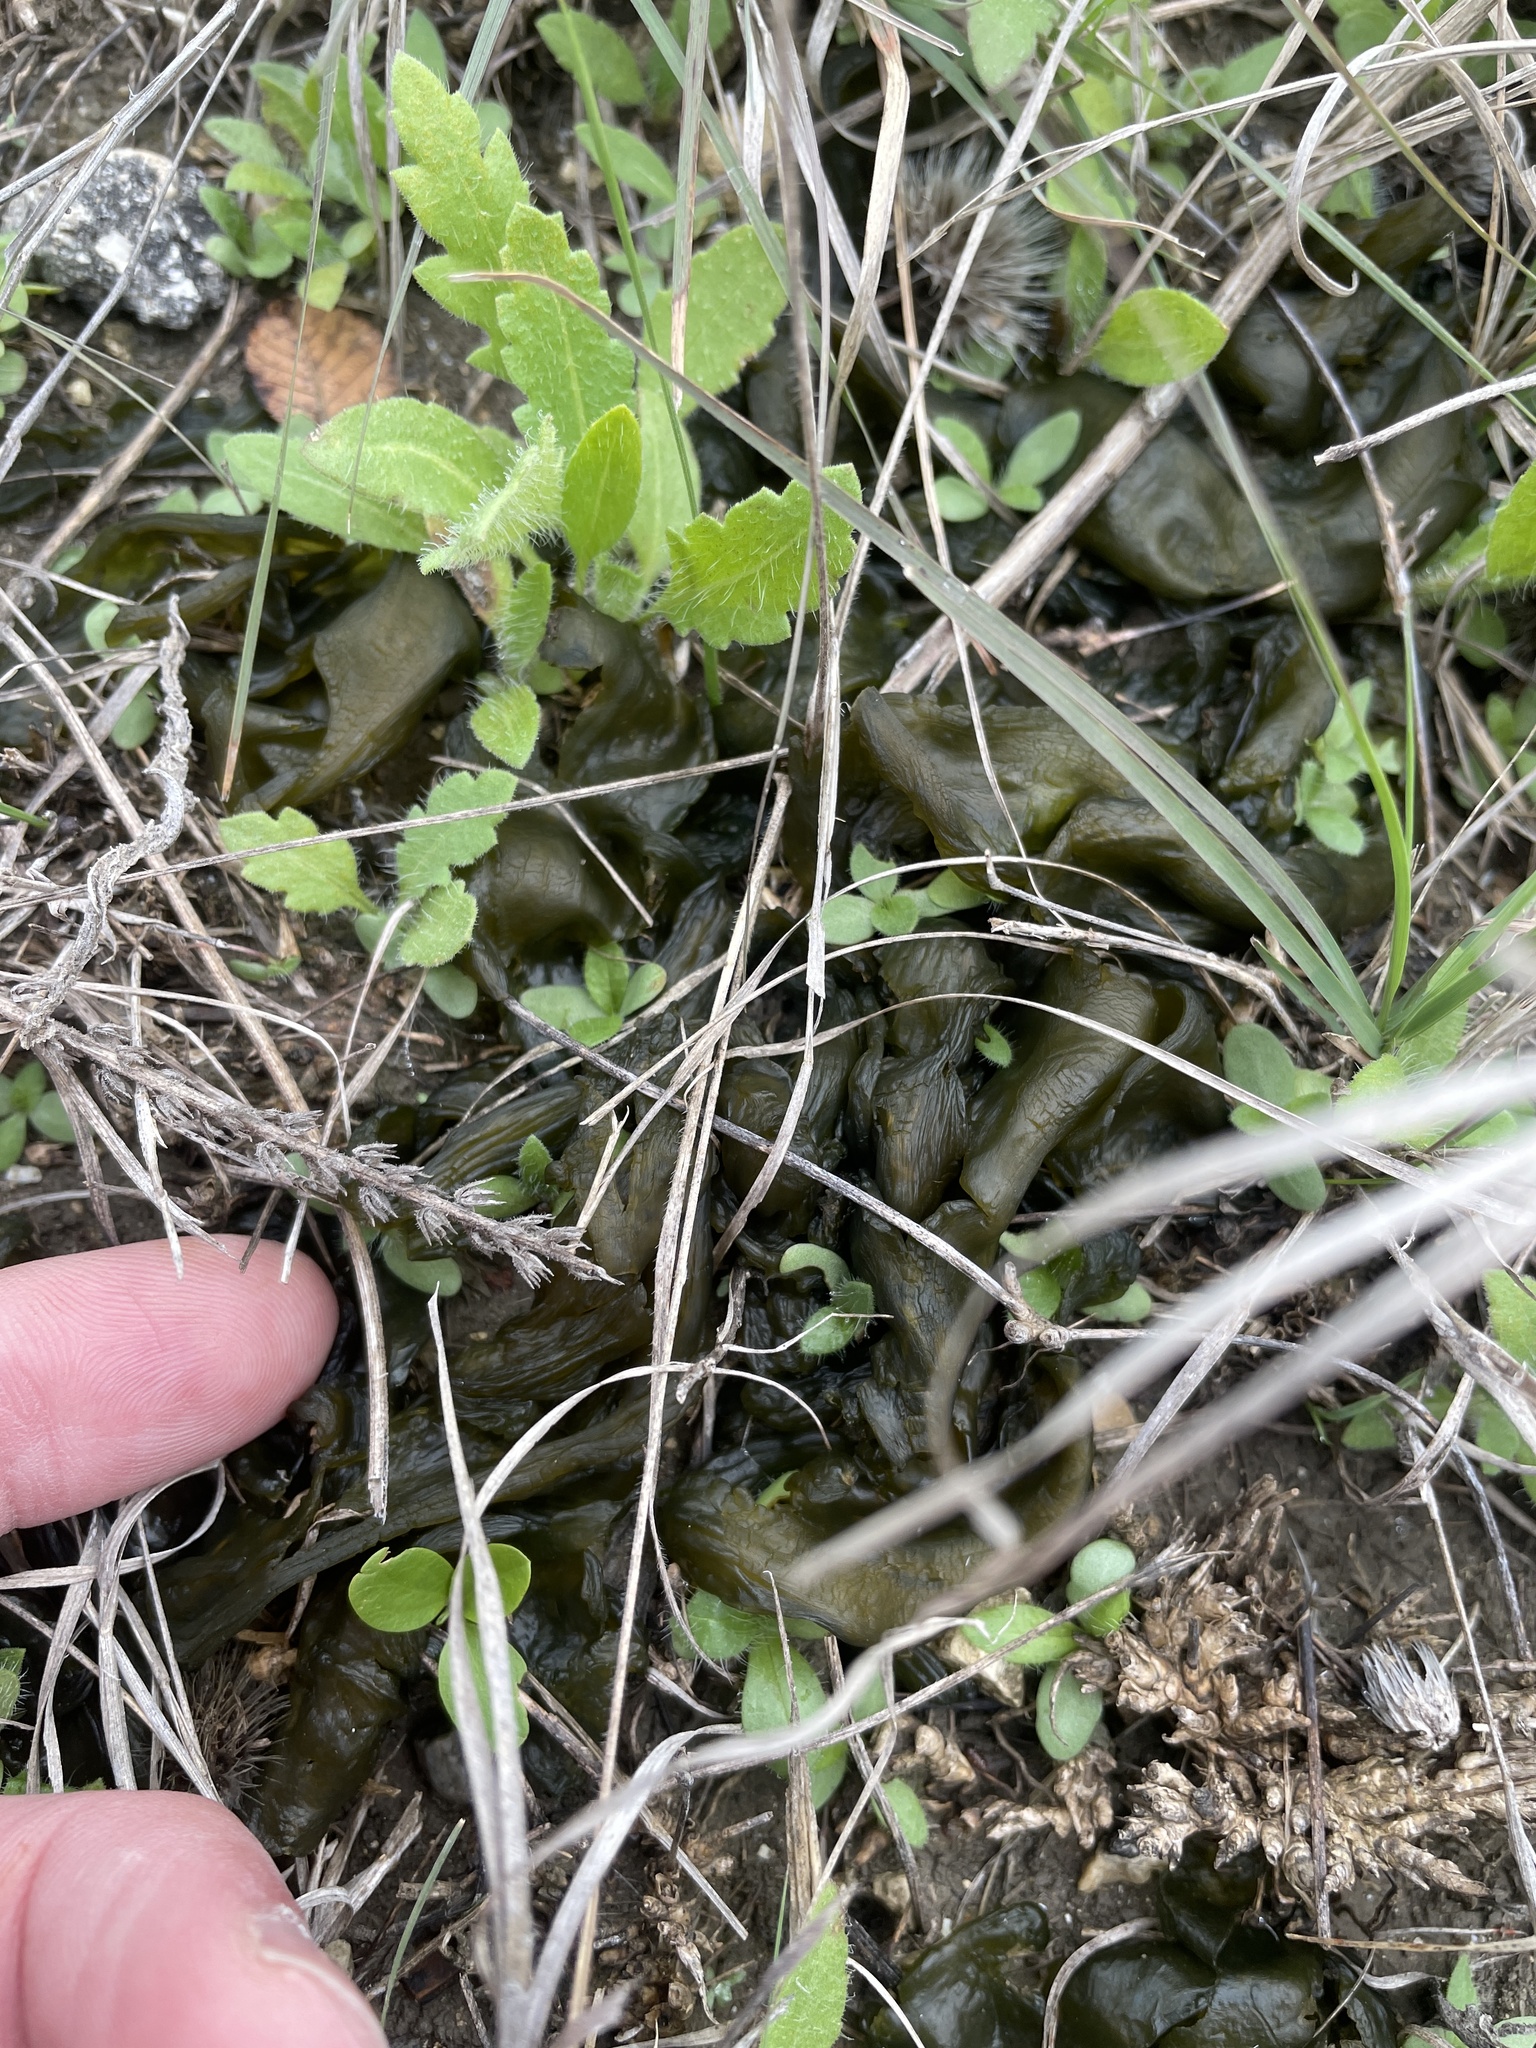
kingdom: Bacteria
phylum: Cyanobacteria
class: Cyanobacteriia
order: Cyanobacteriales
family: Nostocaceae
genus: Nostoc
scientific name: Nostoc commune
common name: Star jelly
